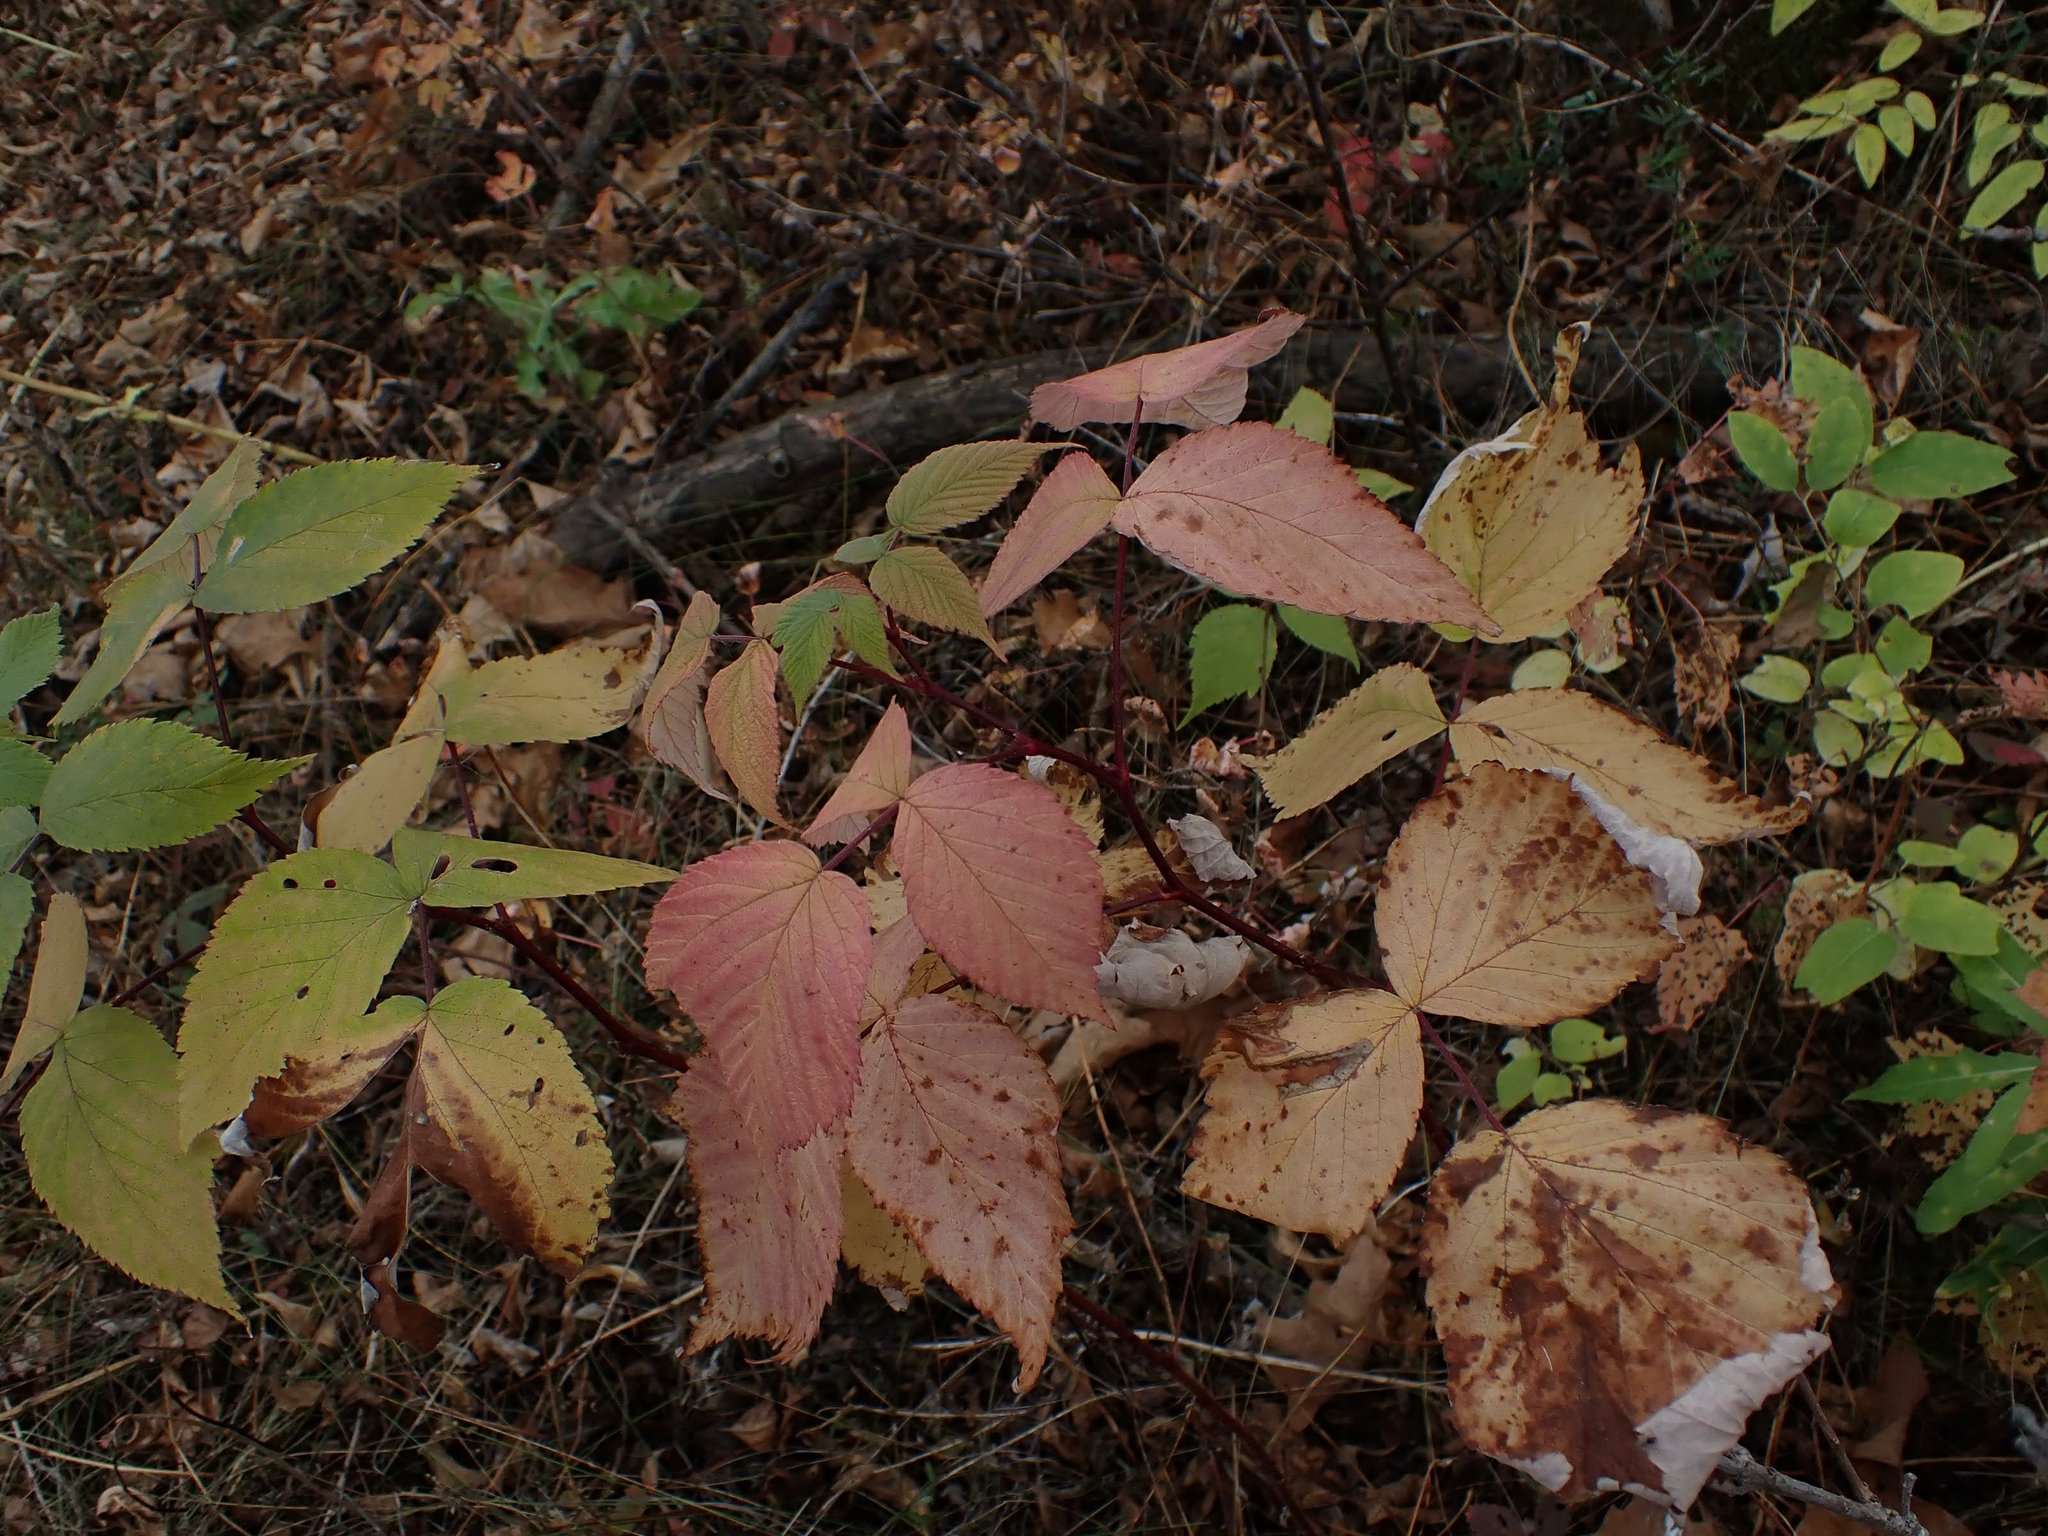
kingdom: Plantae
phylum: Tracheophyta
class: Magnoliopsida
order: Rosales
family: Rosaceae
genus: Rubus
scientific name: Rubus idaeus
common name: Raspberry
